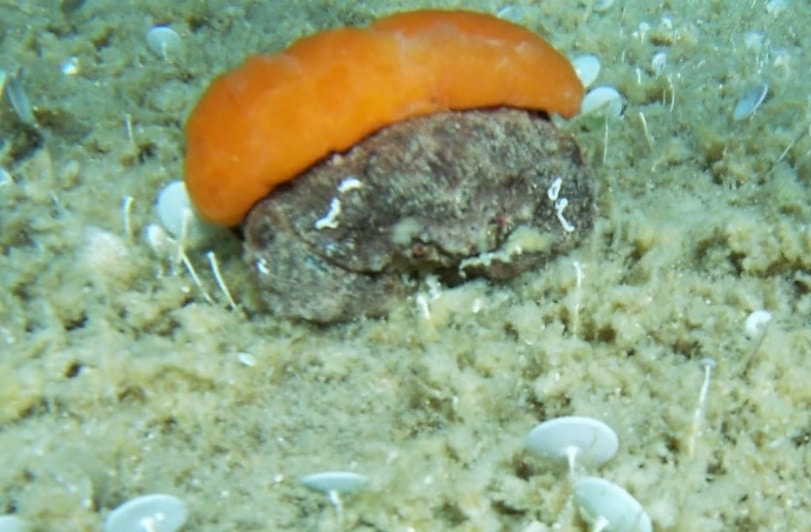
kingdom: Animalia
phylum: Arthropoda
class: Malacostraca
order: Decapoda
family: Dromiidae
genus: Dromia
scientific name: Dromia personata
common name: Sleepy crab
